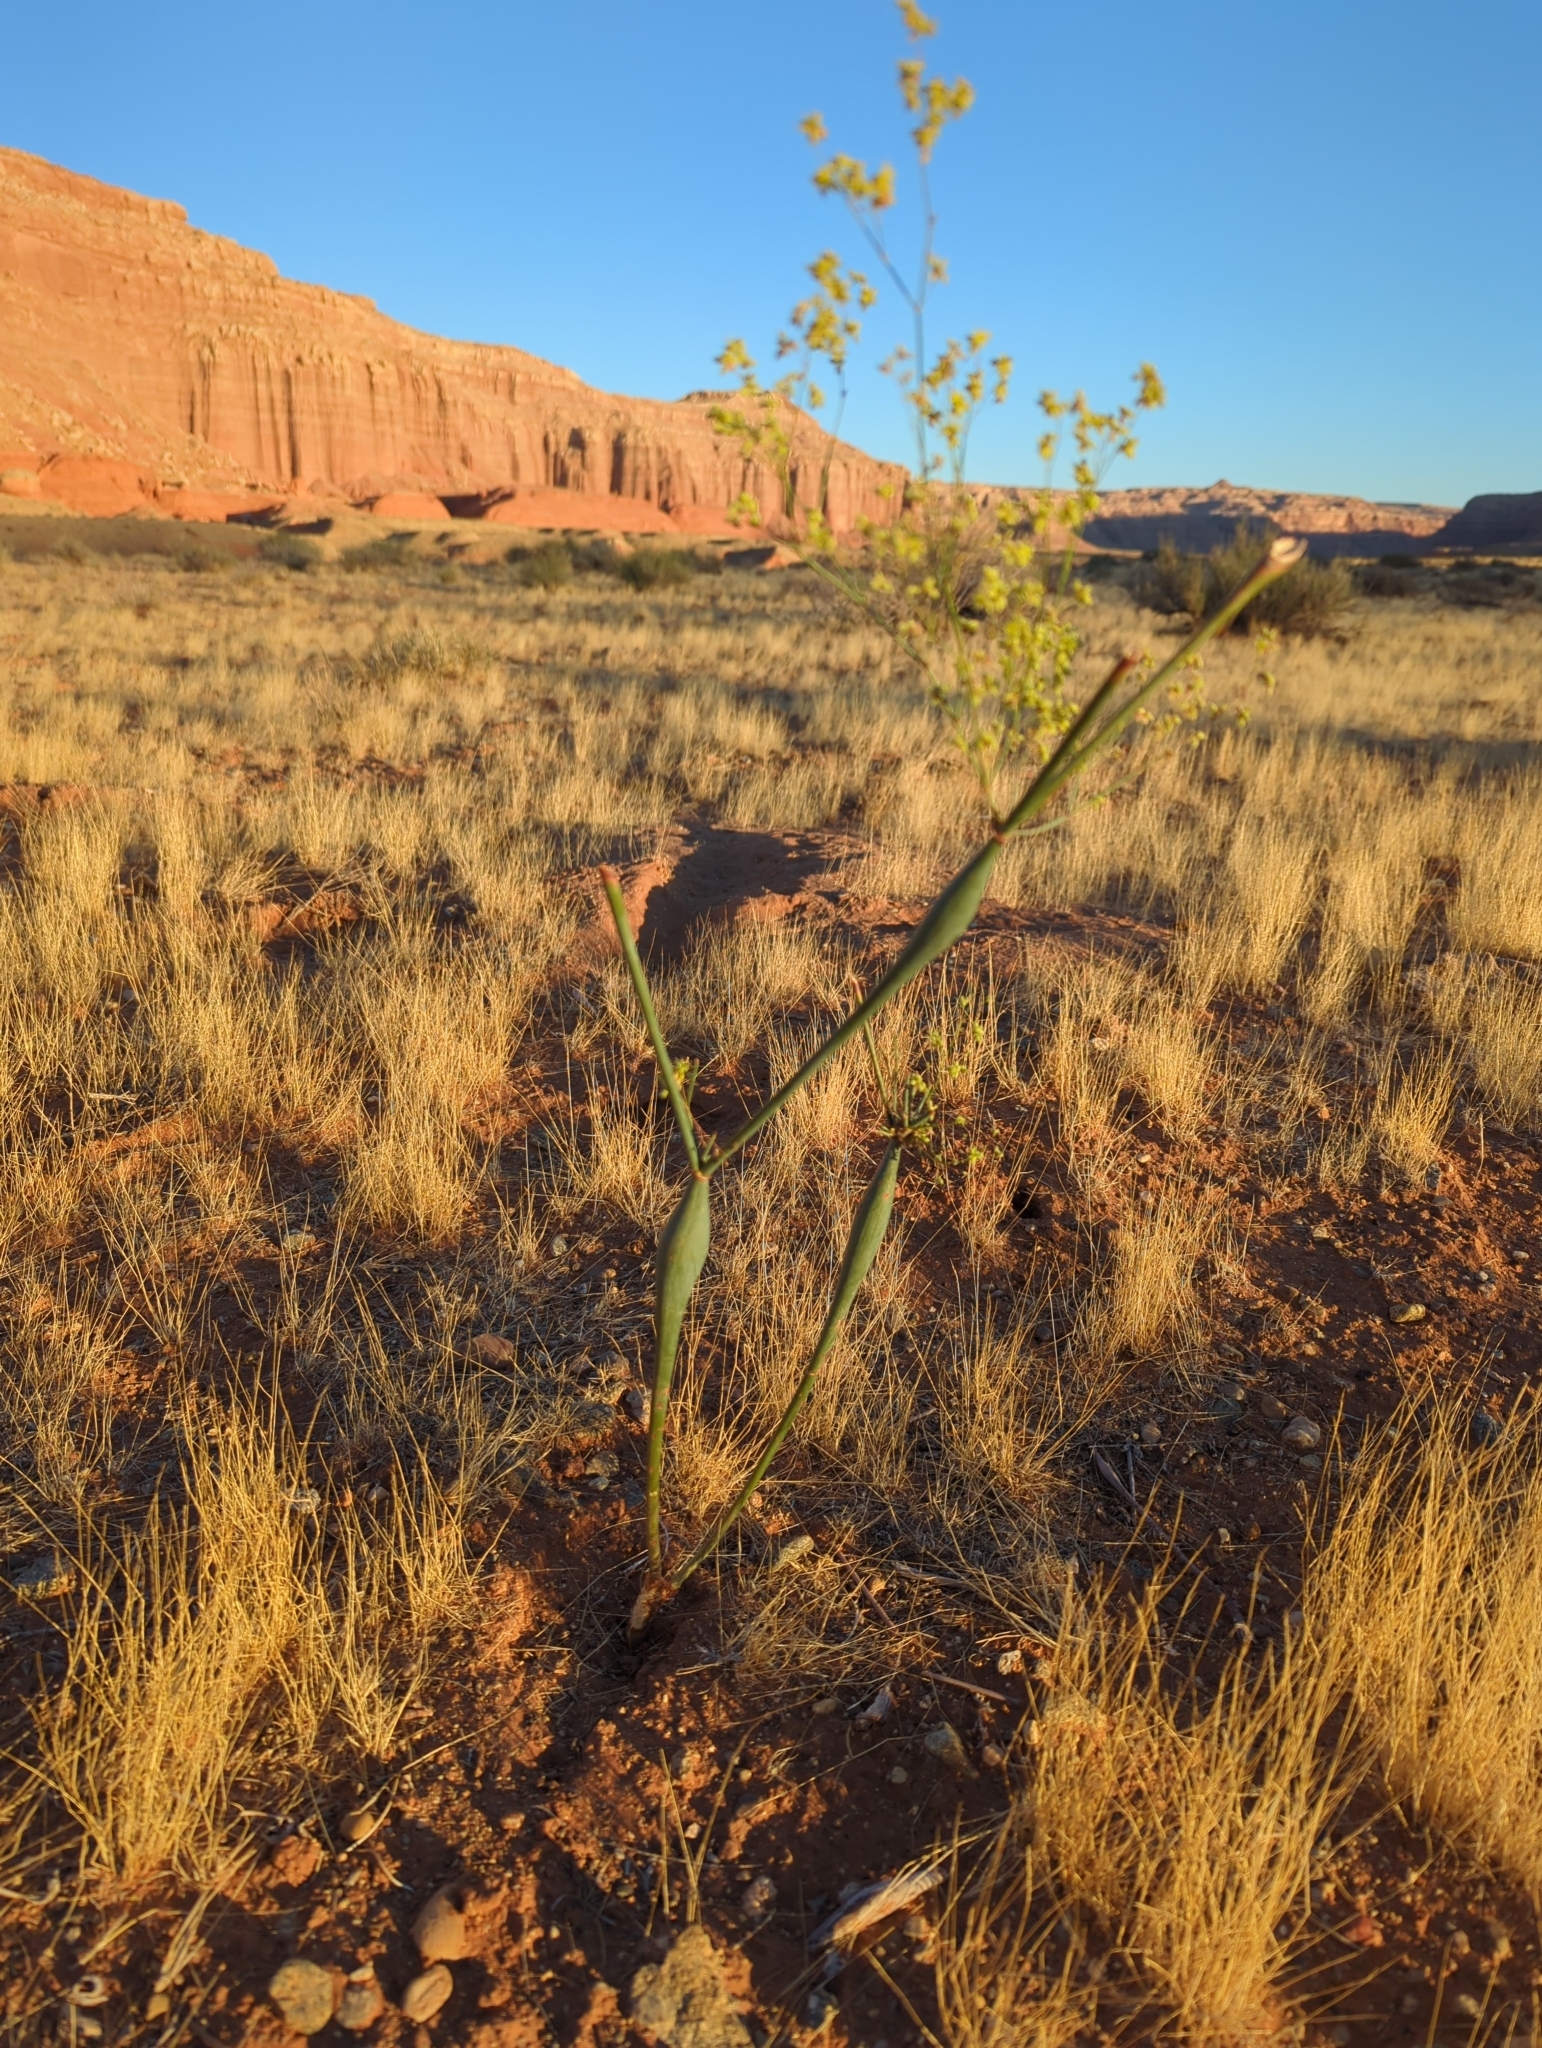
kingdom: Plantae
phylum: Tracheophyta
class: Magnoliopsida
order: Caryophyllales
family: Polygonaceae
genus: Eriogonum
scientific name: Eriogonum fusiforme
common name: Grand valley desert trumpet
